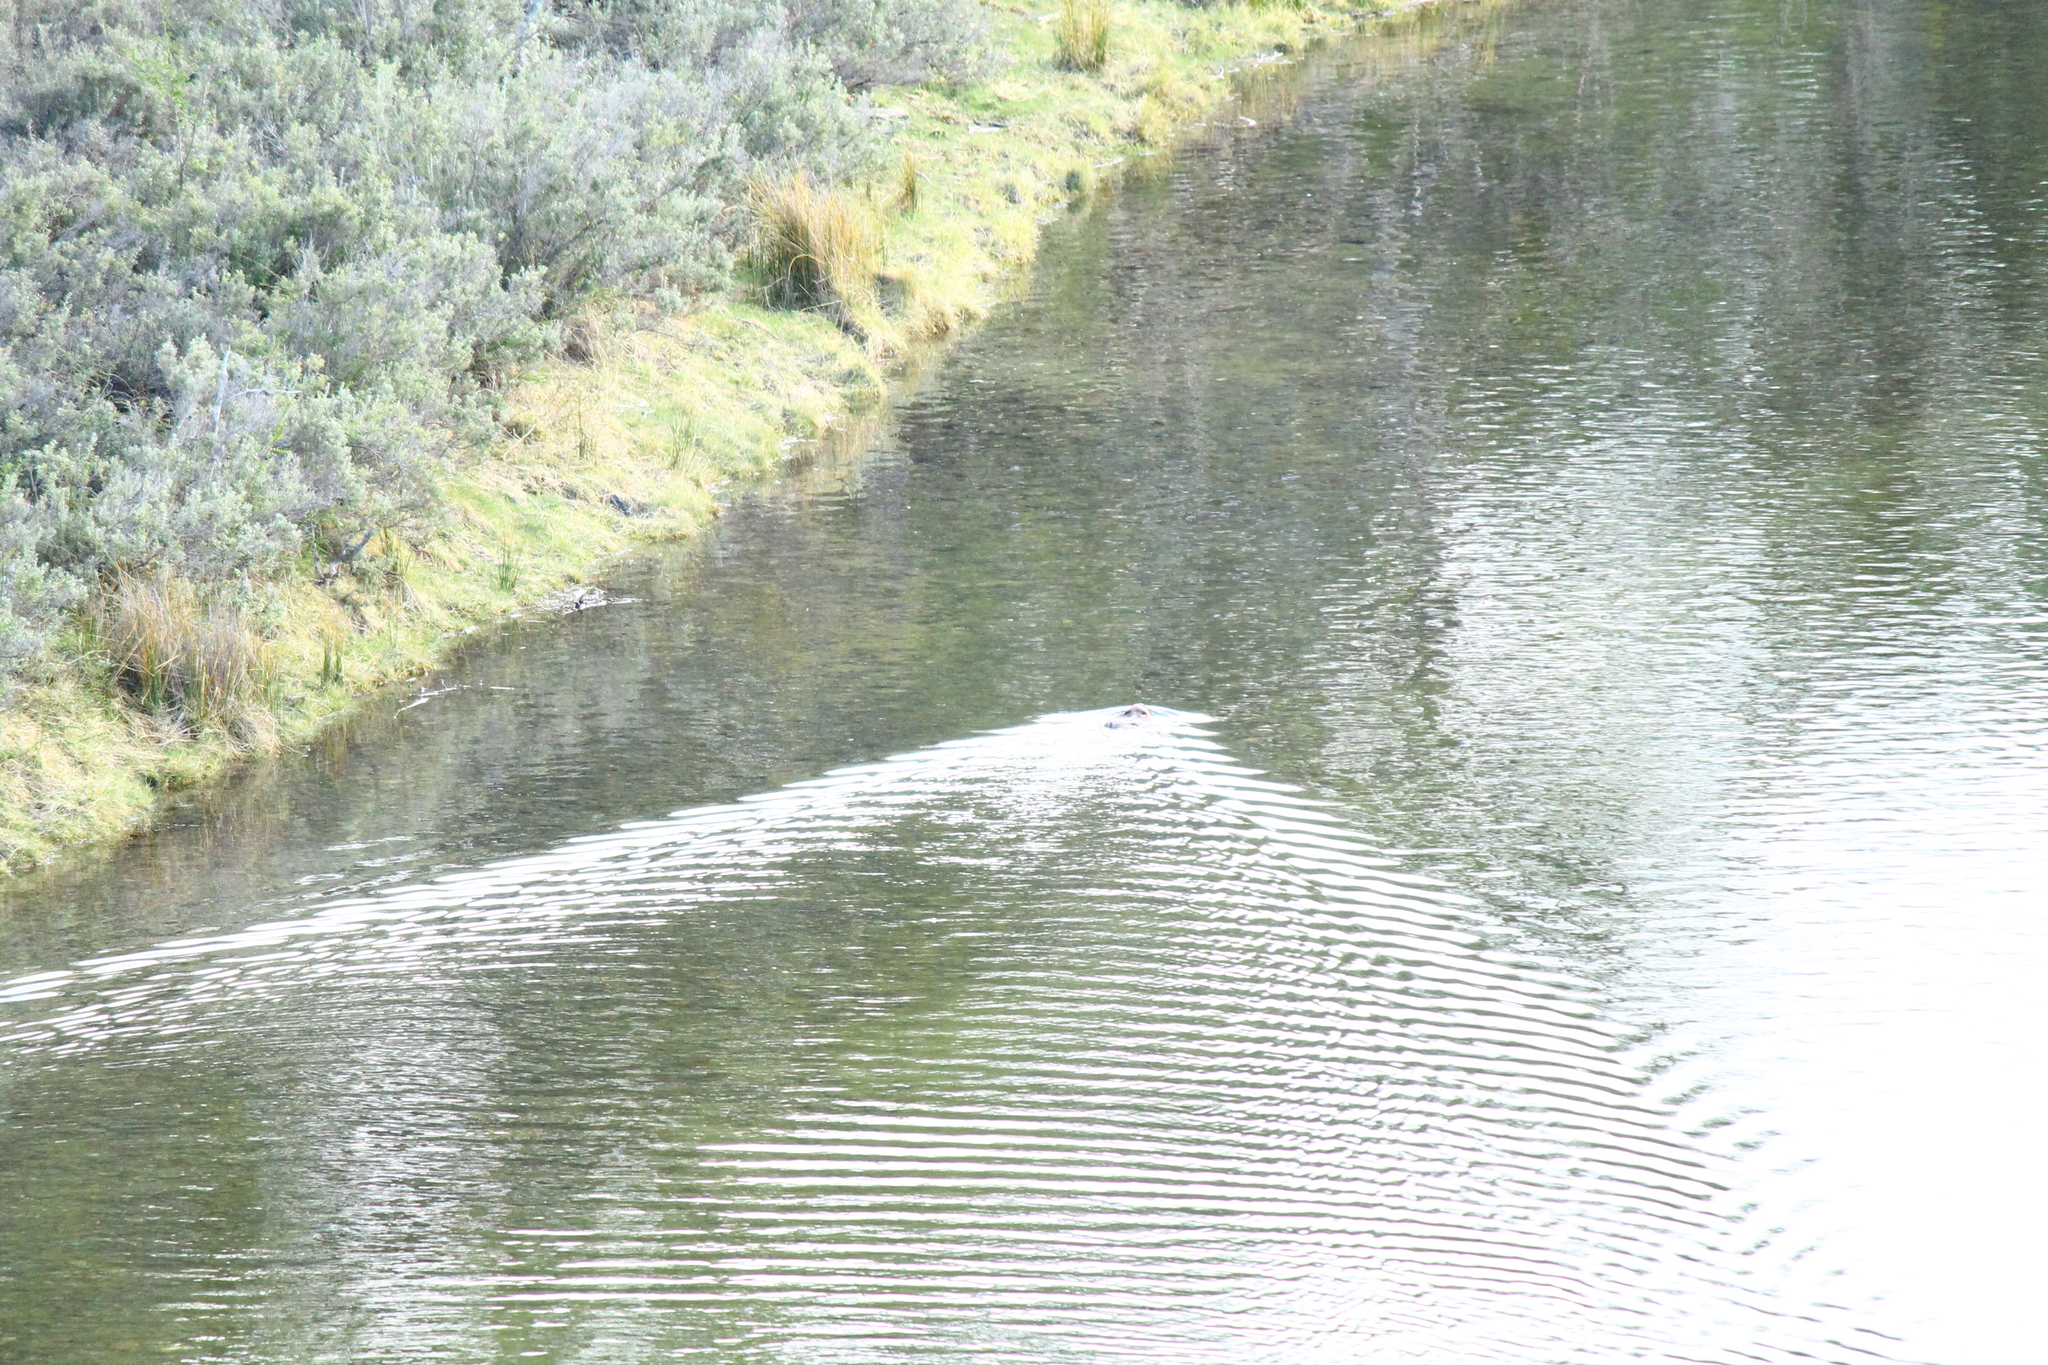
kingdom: Animalia
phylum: Chordata
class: Mammalia
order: Rodentia
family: Castoridae
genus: Castor
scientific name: Castor canadensis
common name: American beaver
